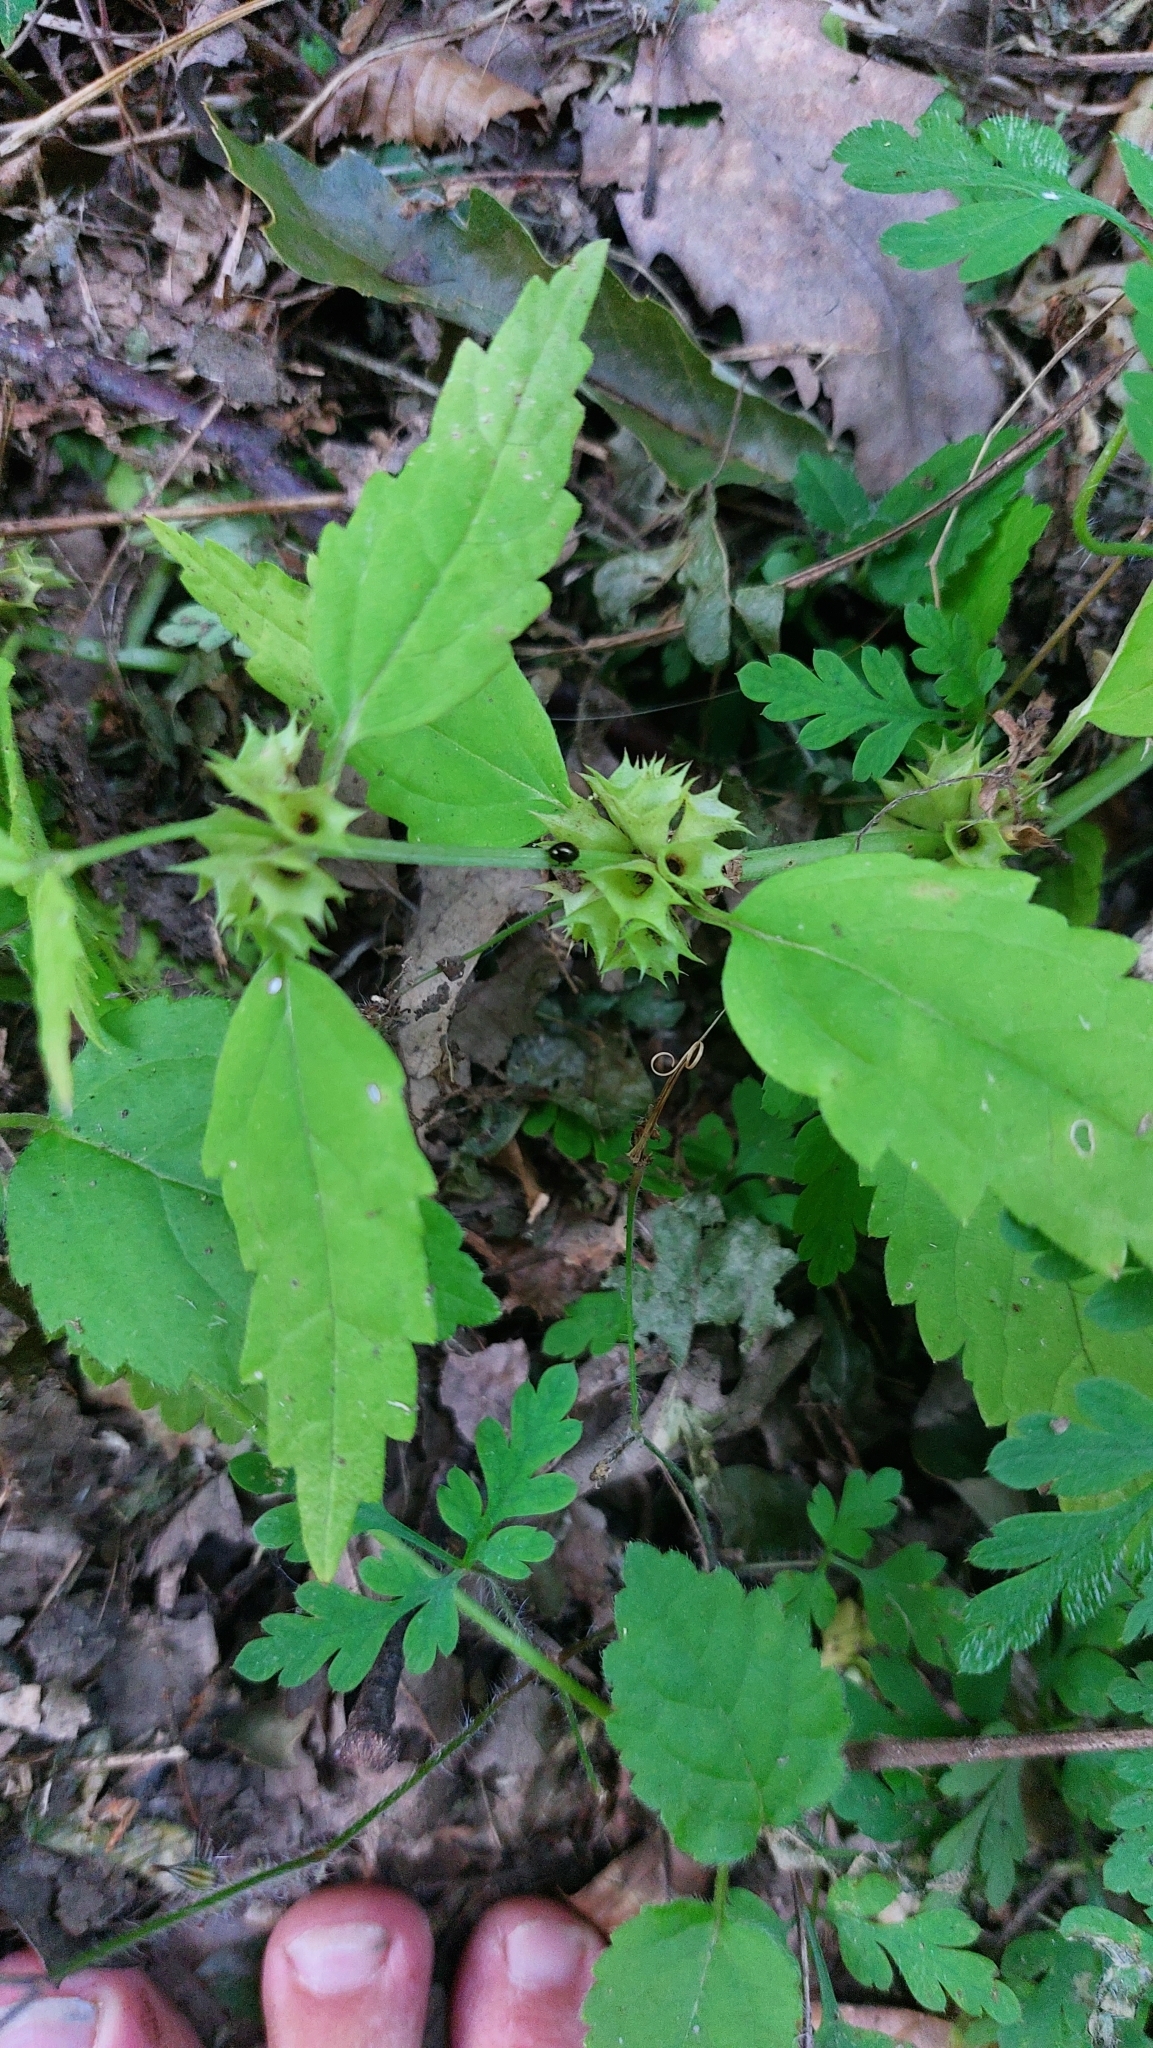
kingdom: Plantae
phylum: Tracheophyta
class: Magnoliopsida
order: Lamiales
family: Lamiaceae
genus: Lamium
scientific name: Lamium galeobdolon
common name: Yellow archangel
